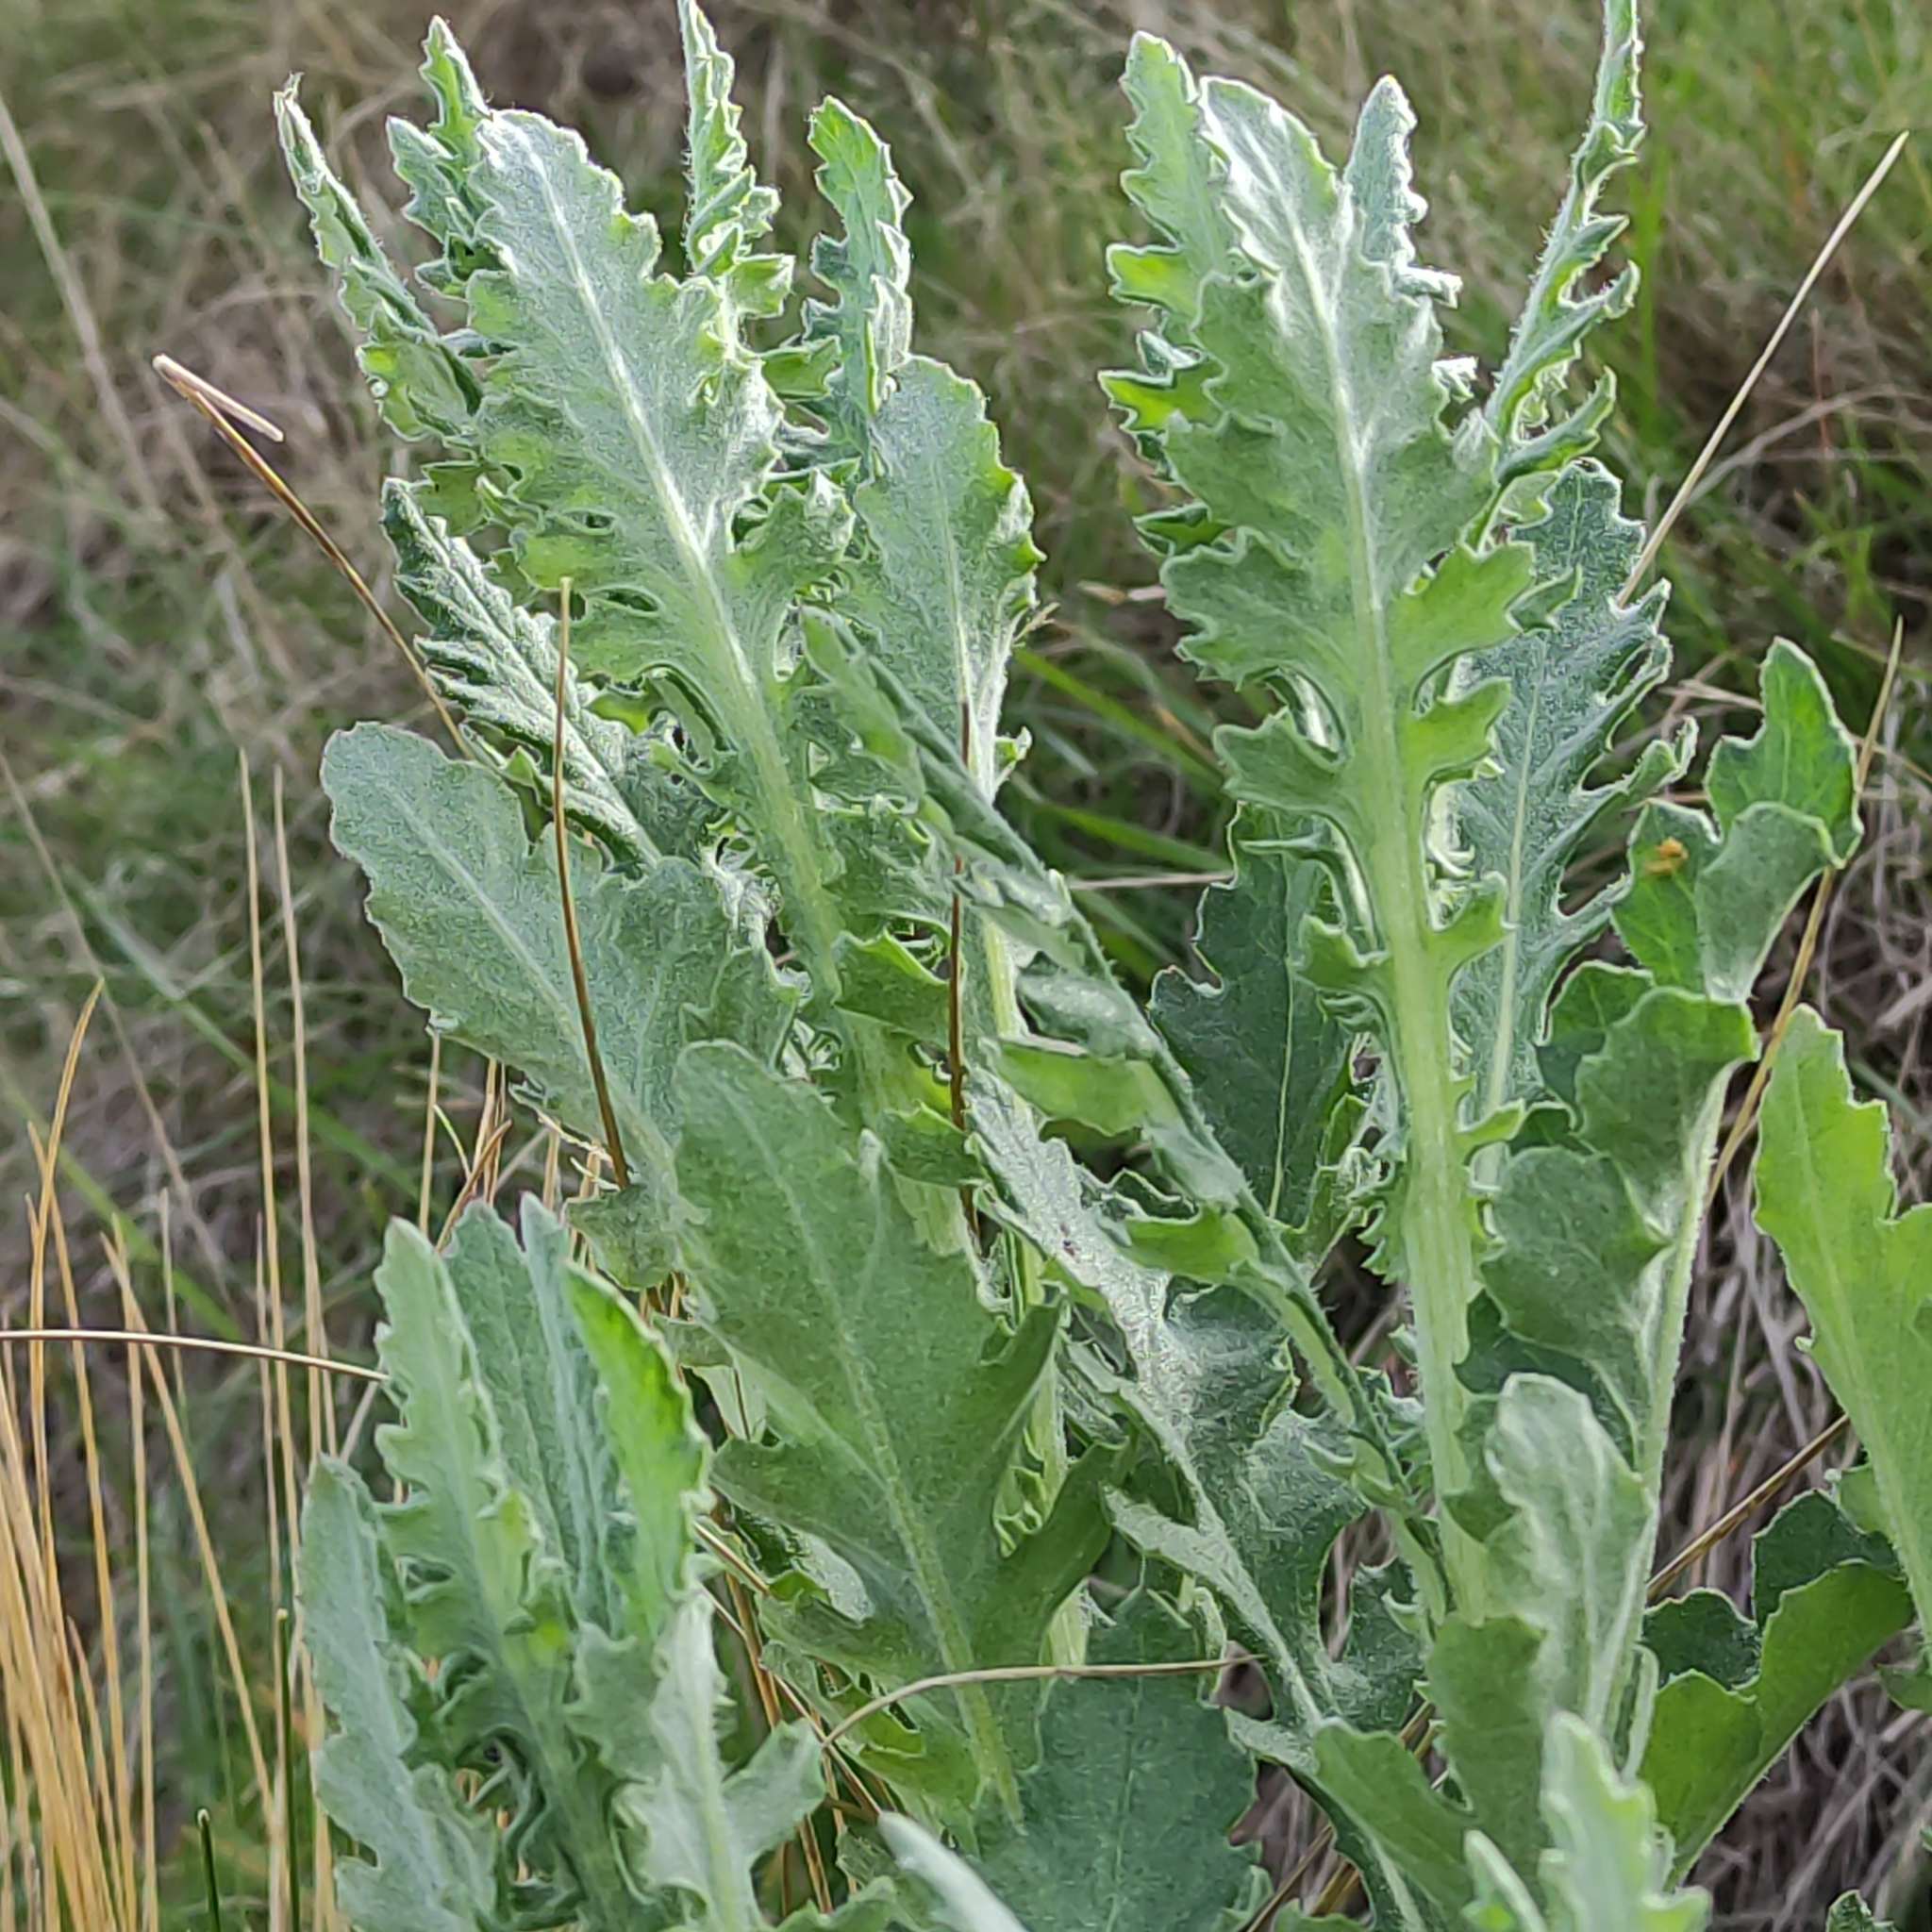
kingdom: Plantae
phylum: Tracheophyta
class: Magnoliopsida
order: Asterales
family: Asteraceae
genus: Senecio
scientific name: Senecio glomeratus
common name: Cutleaf burnweed
